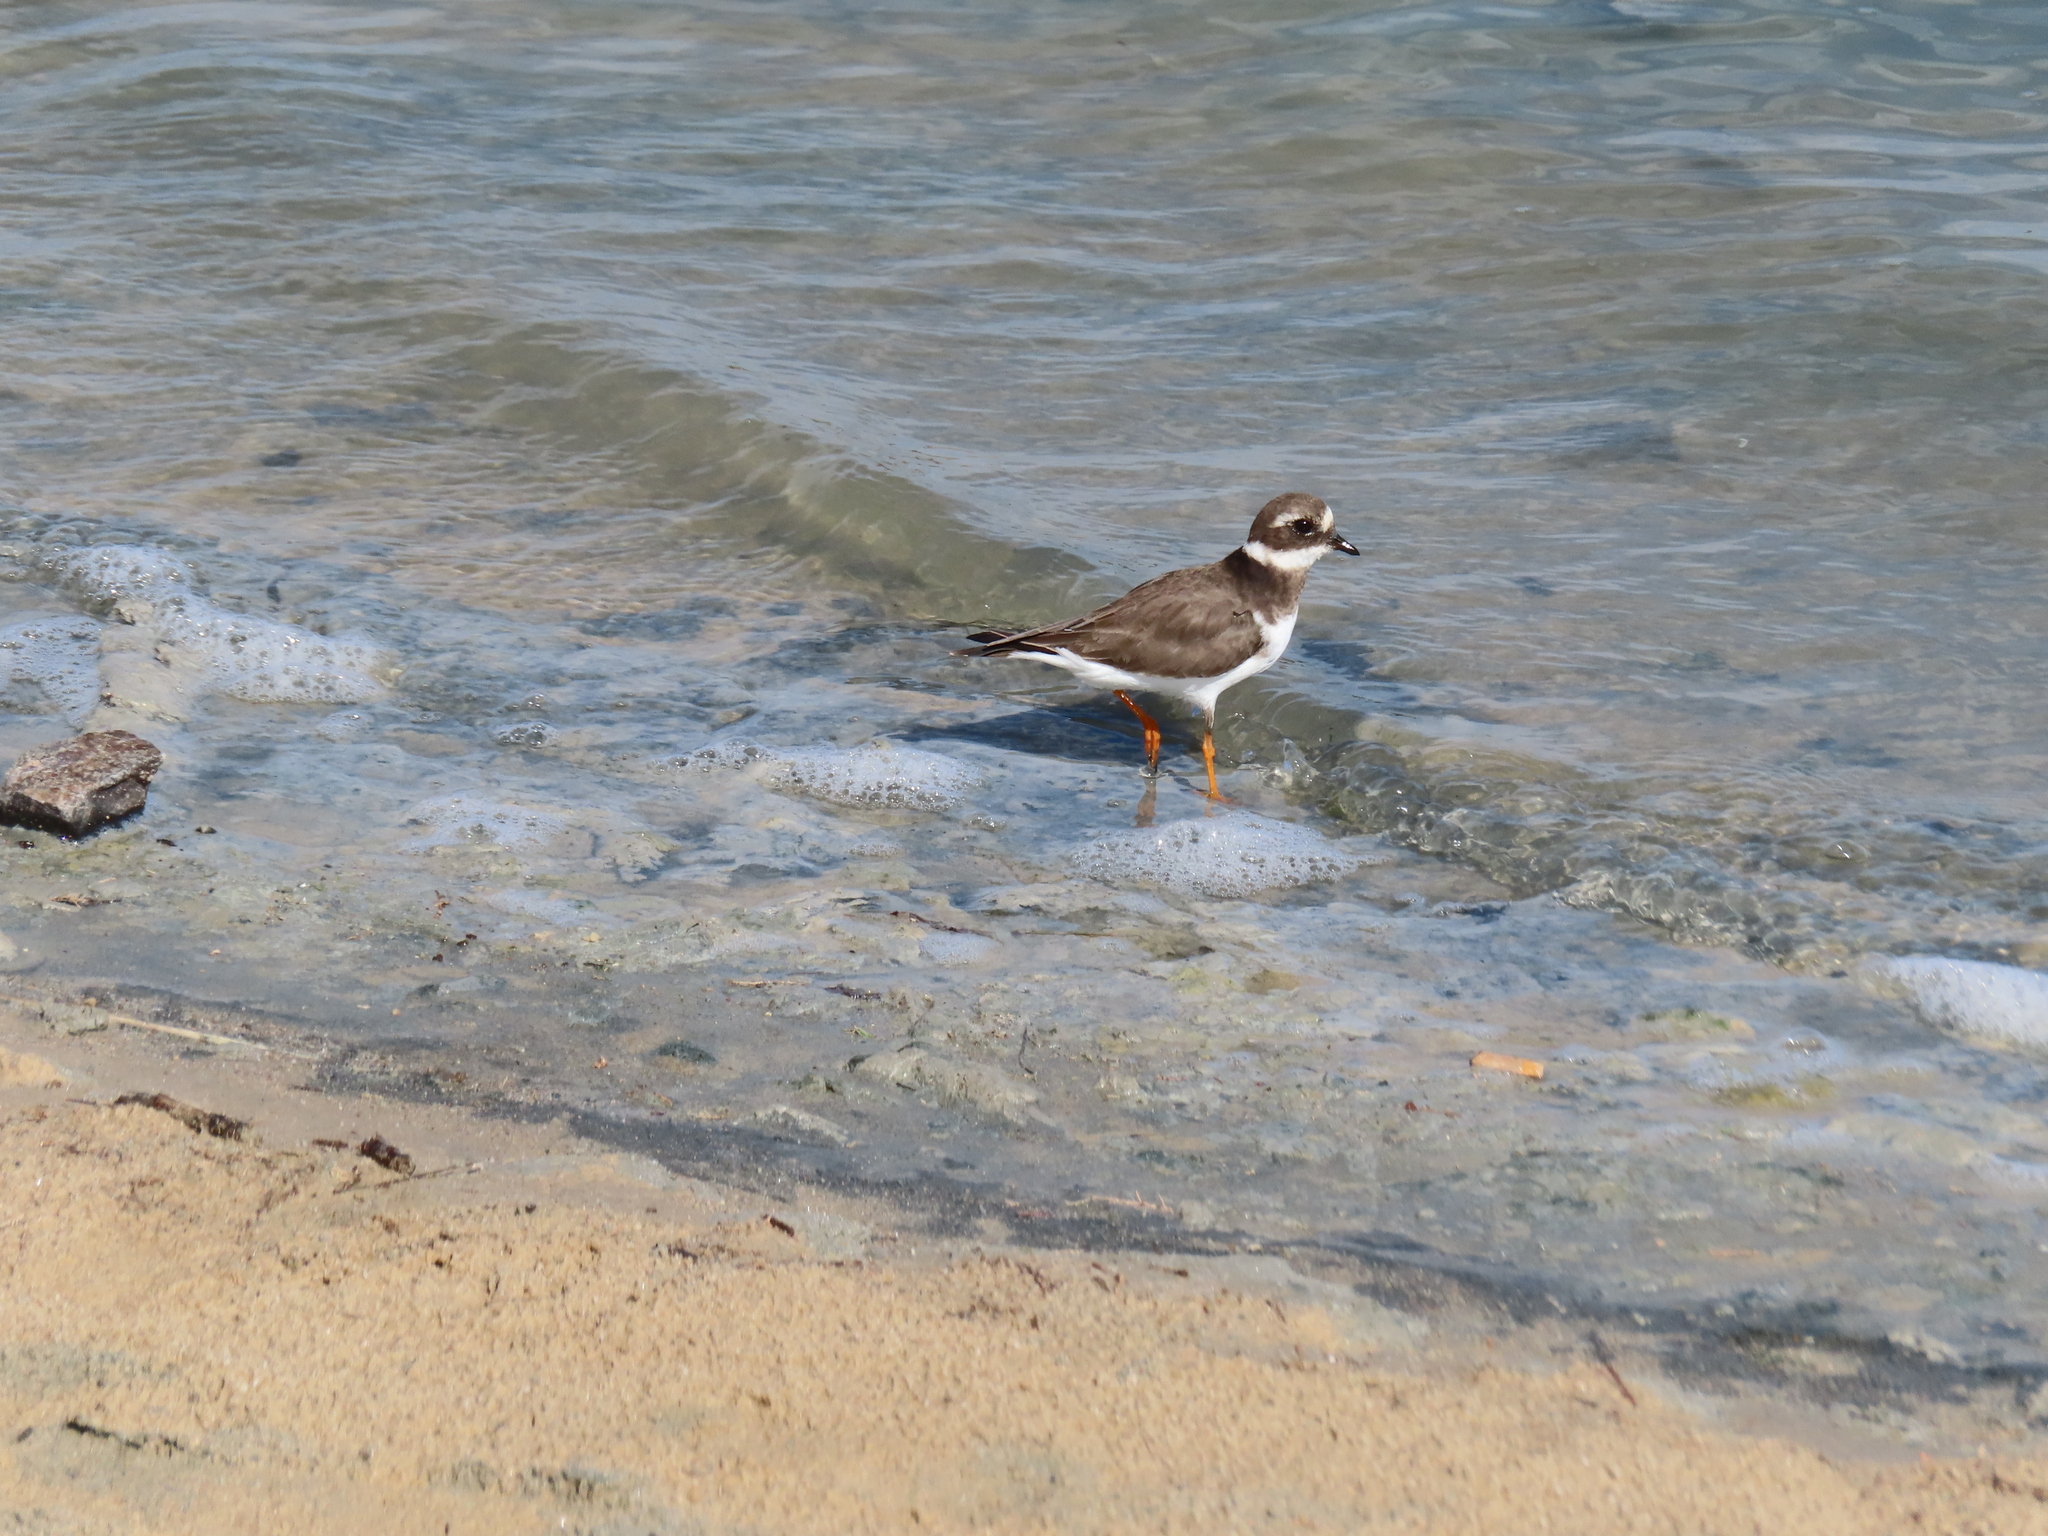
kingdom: Animalia
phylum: Chordata
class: Aves
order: Charadriiformes
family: Charadriidae
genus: Charadrius
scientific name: Charadrius hiaticula
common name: Common ringed plover
